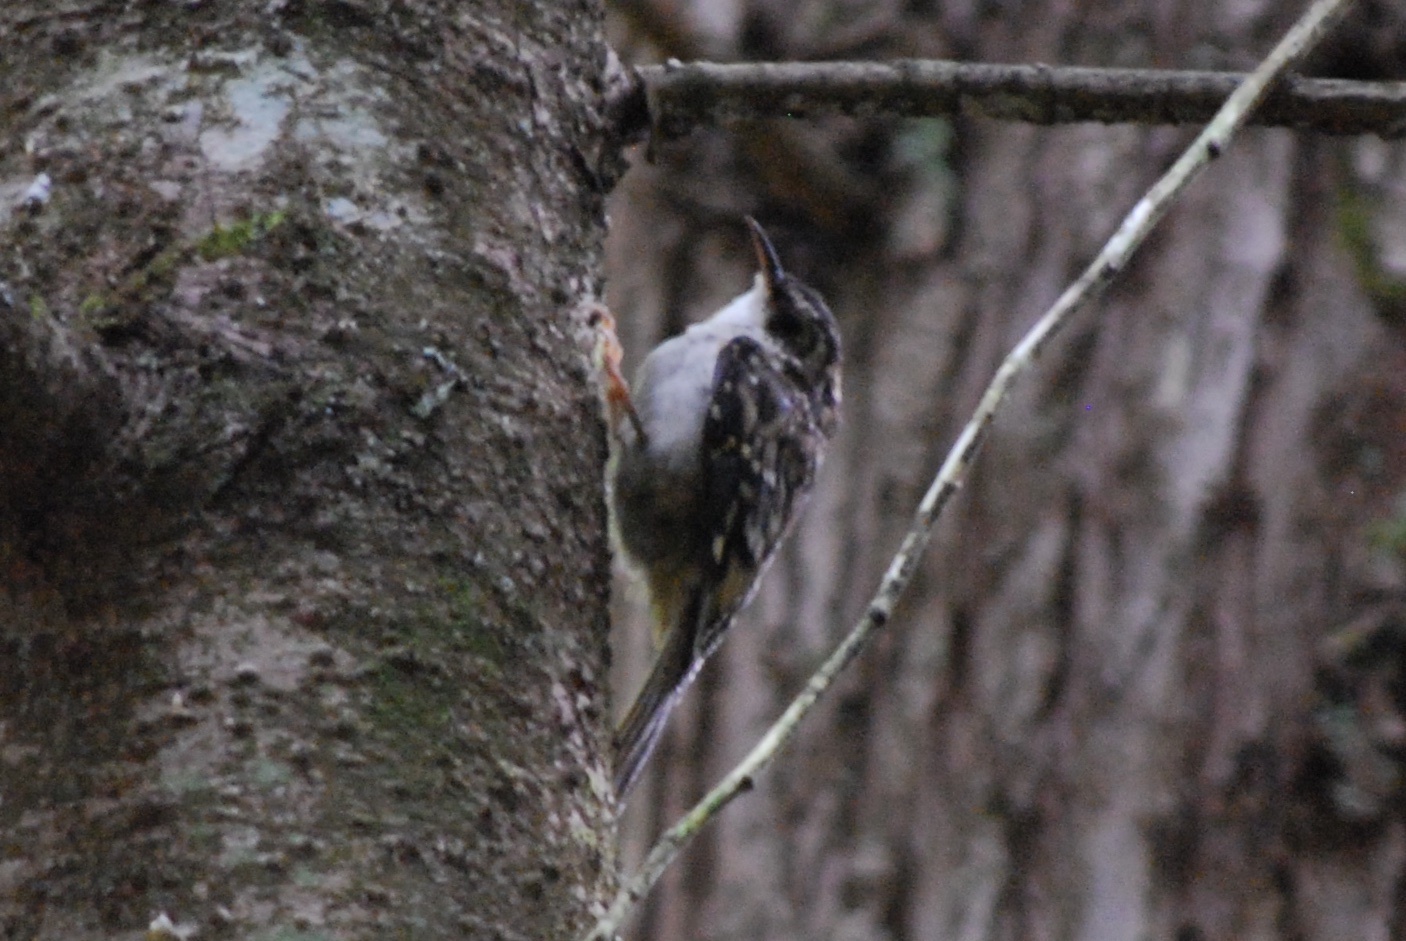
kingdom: Animalia
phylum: Chordata
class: Aves
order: Passeriformes
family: Certhiidae
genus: Certhia
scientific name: Certhia americana
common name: Brown creeper
